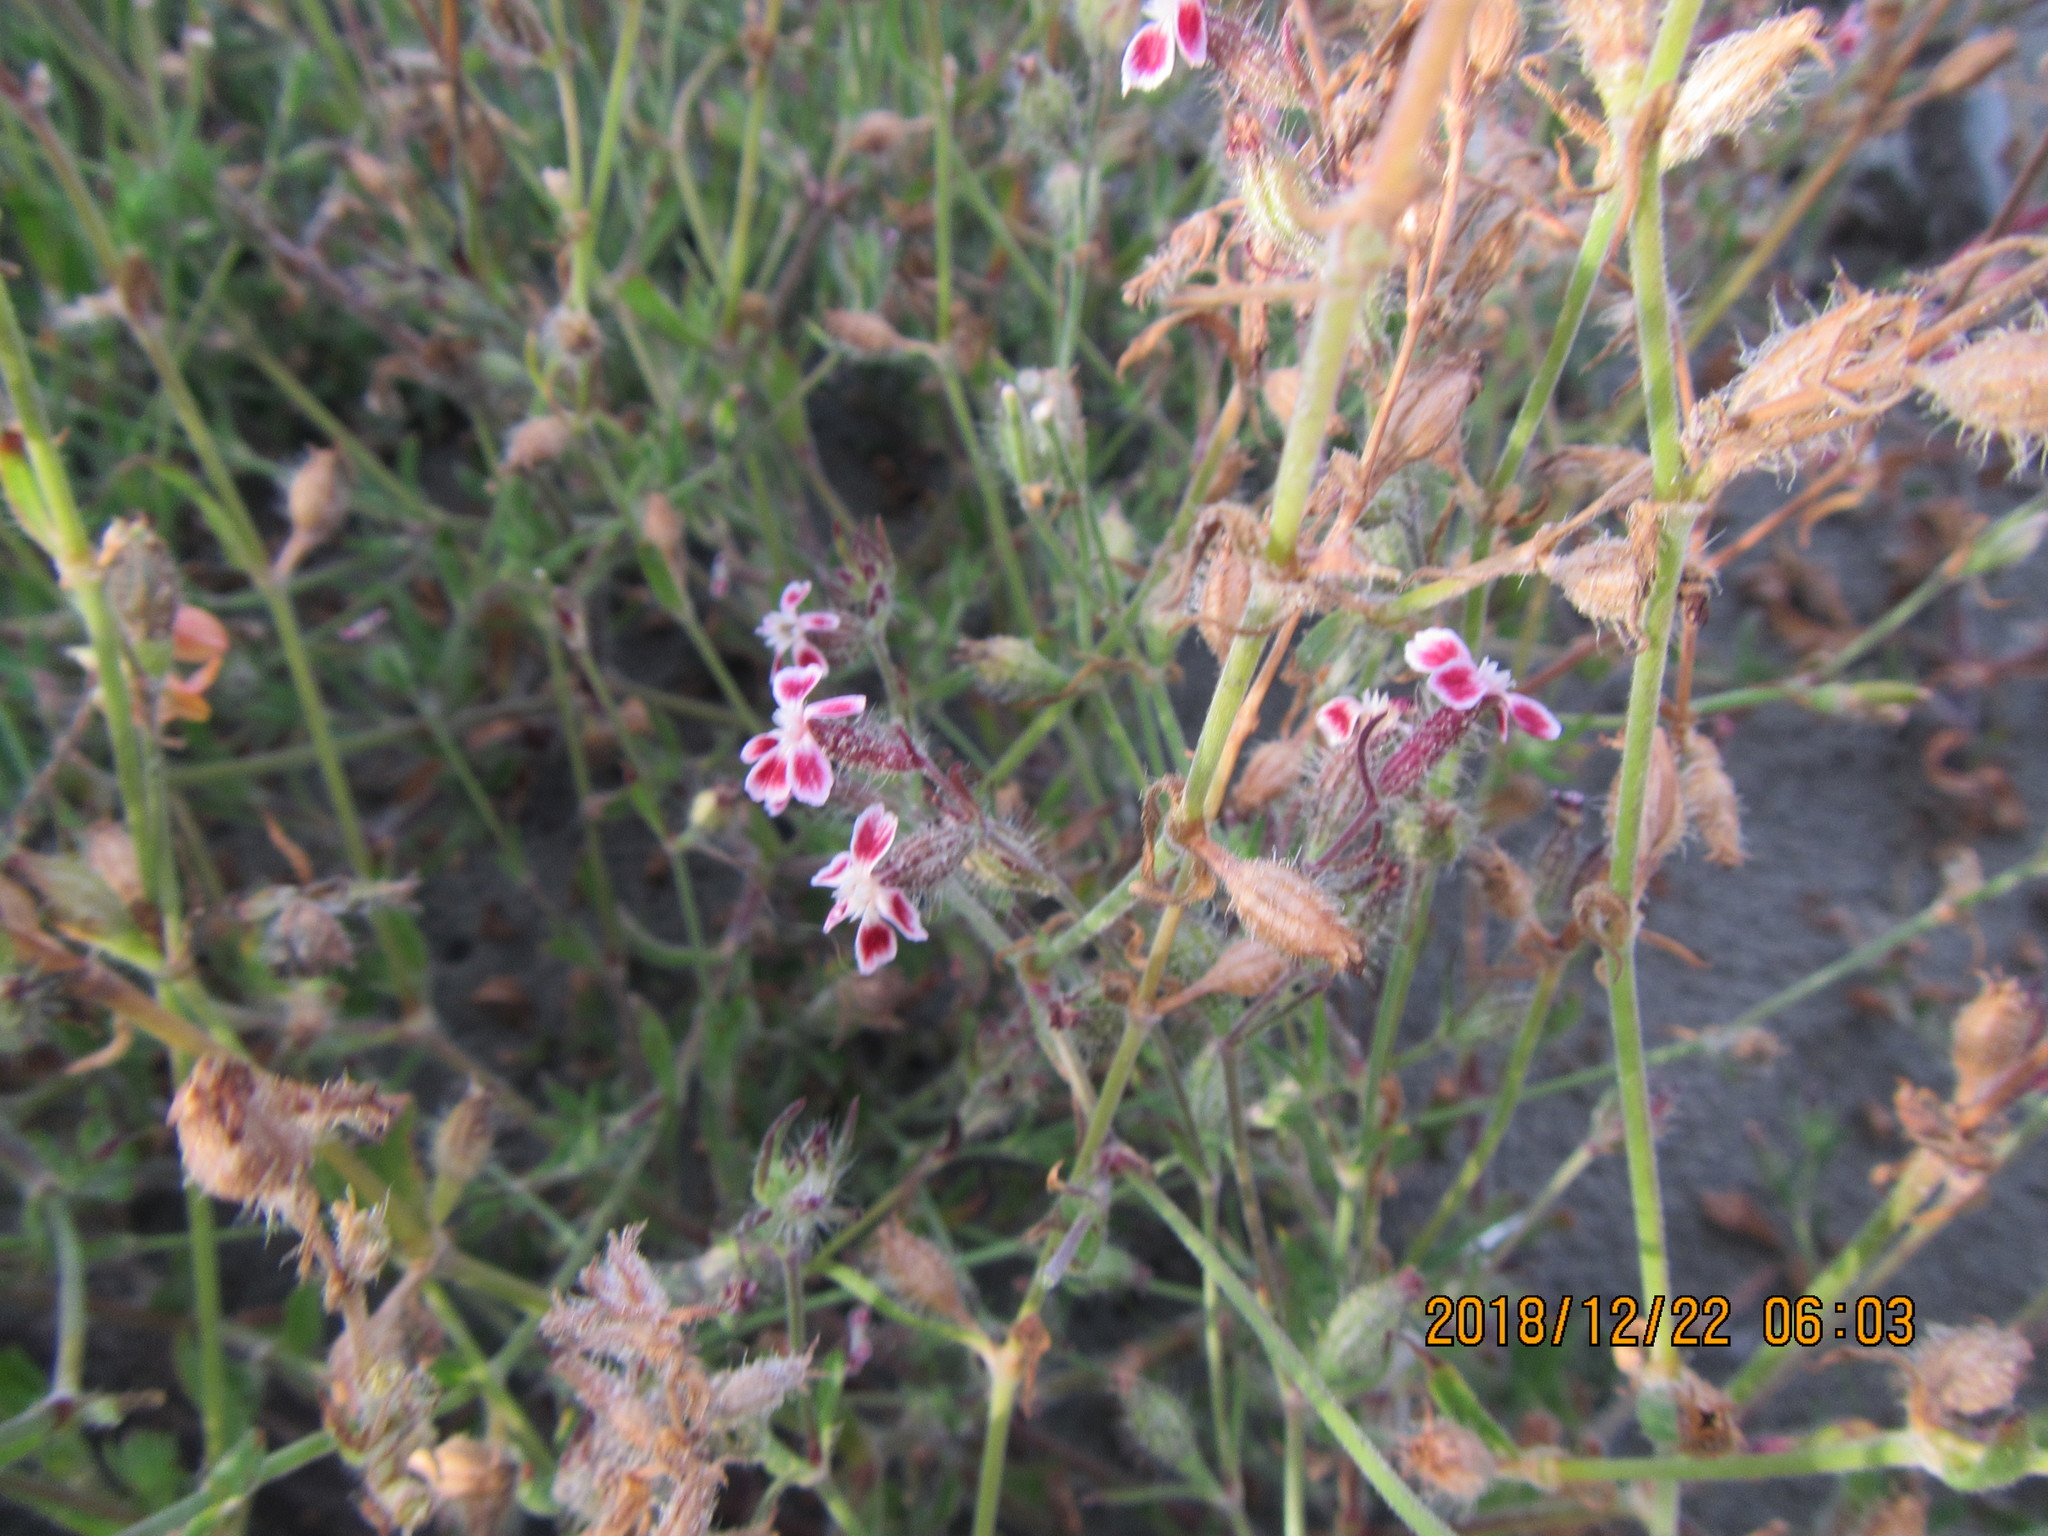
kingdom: Plantae
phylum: Tracheophyta
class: Magnoliopsida
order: Caryophyllales
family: Caryophyllaceae
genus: Silene
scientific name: Silene gallica
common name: Small-flowered catchfly
